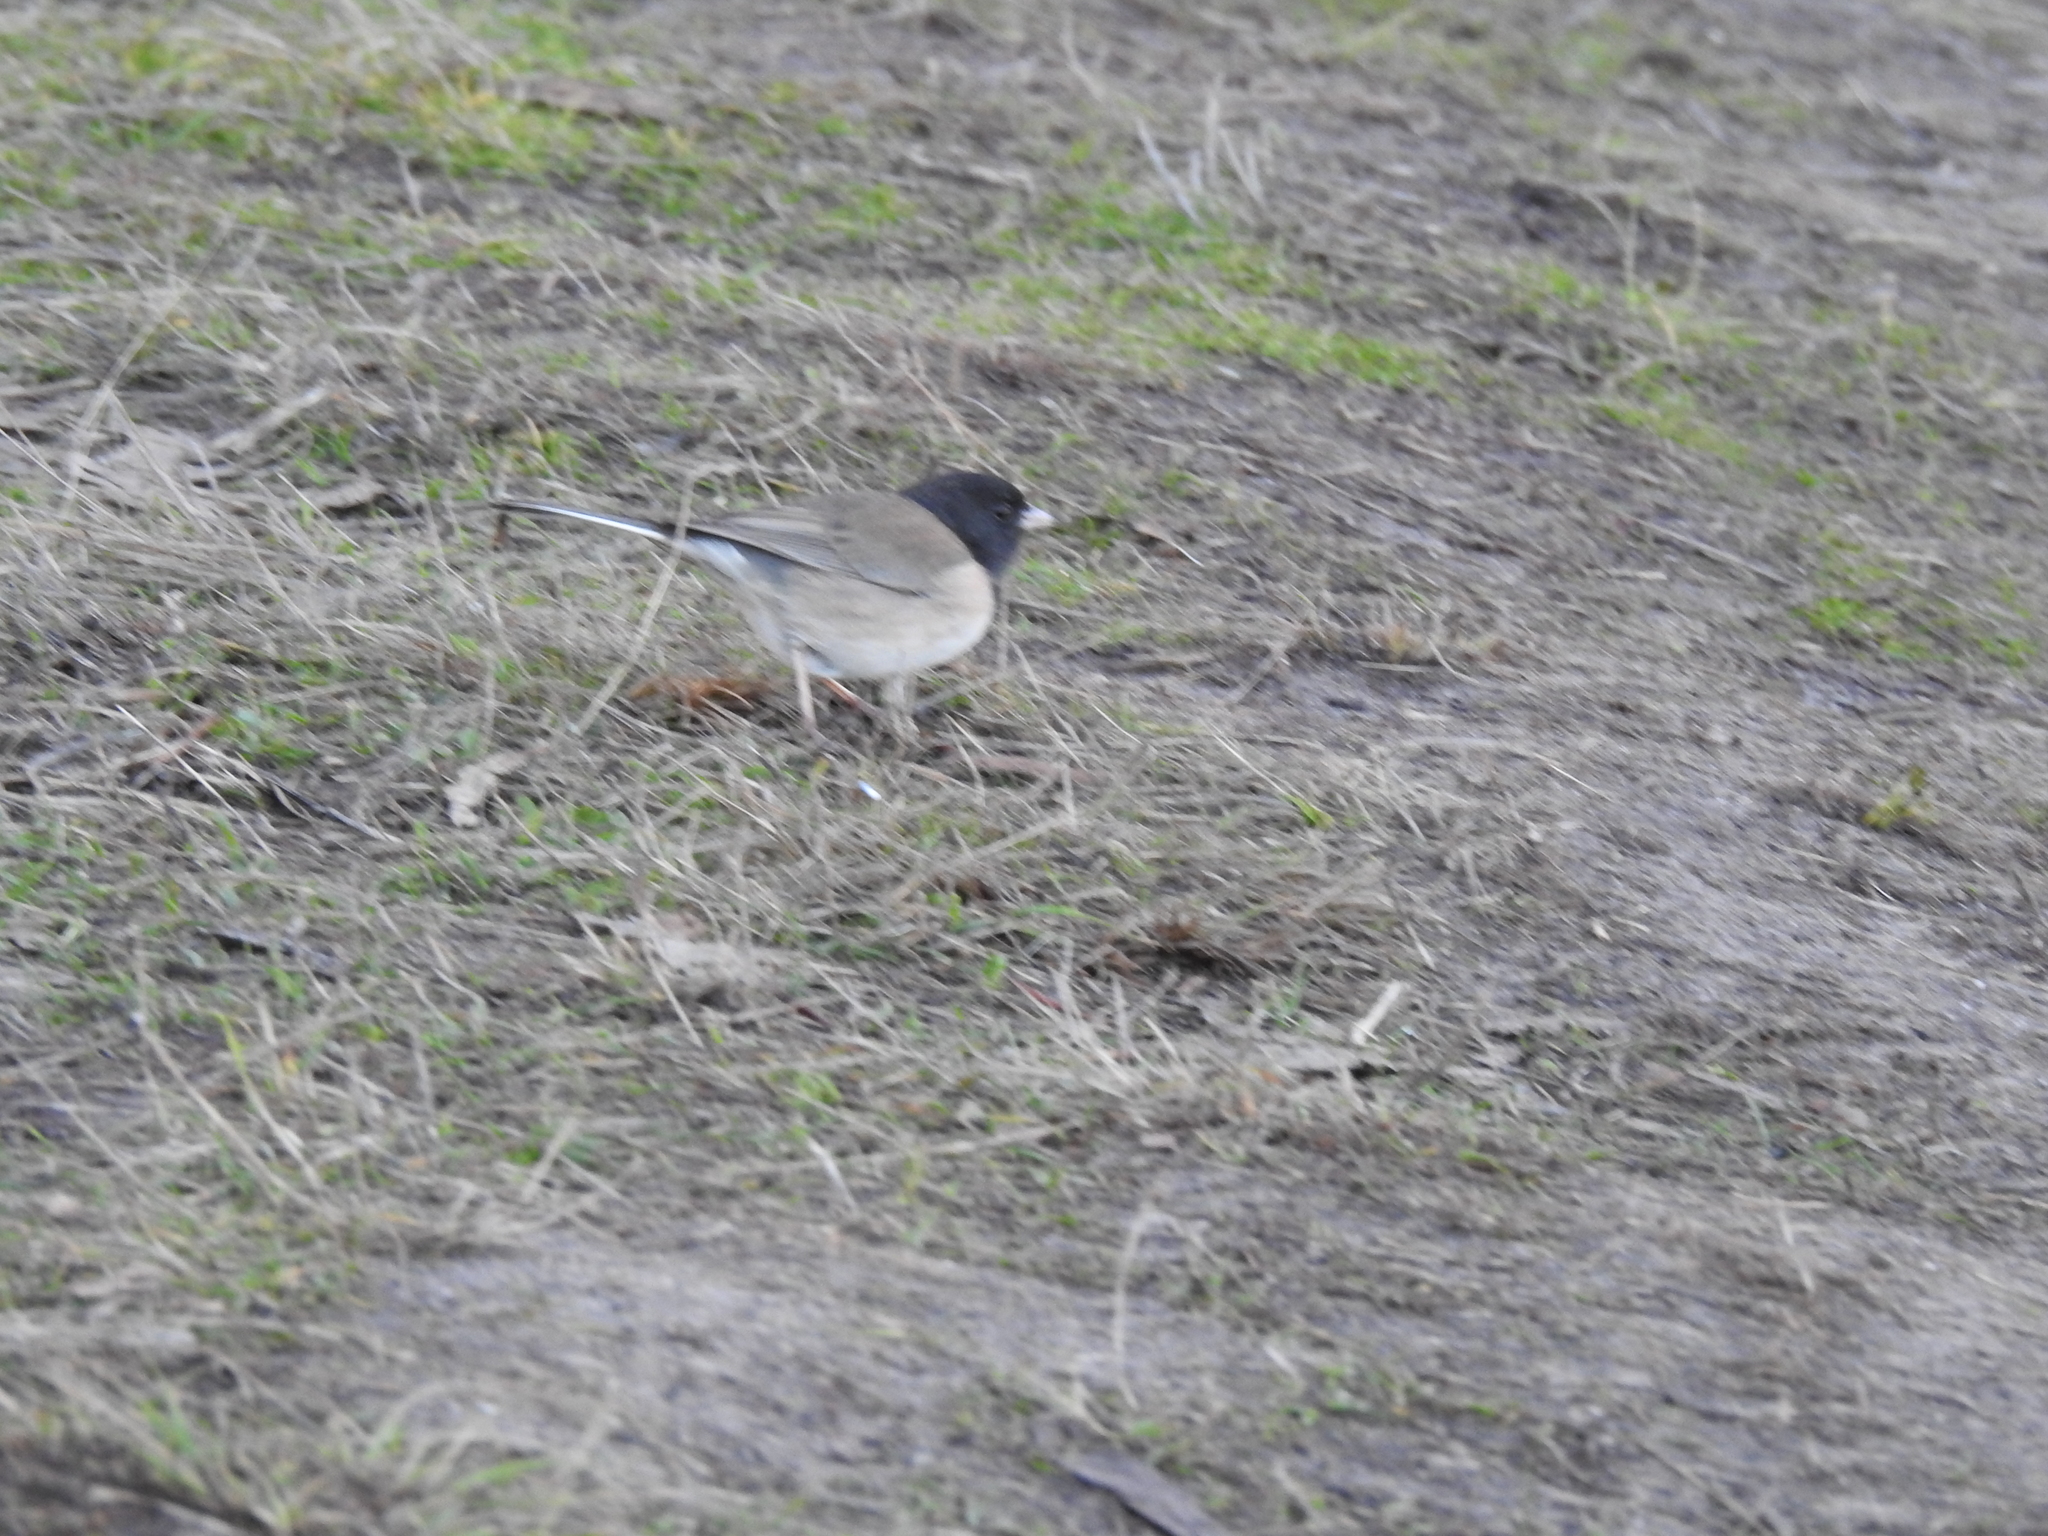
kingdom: Animalia
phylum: Chordata
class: Aves
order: Passeriformes
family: Passerellidae
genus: Junco
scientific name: Junco hyemalis
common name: Dark-eyed junco
